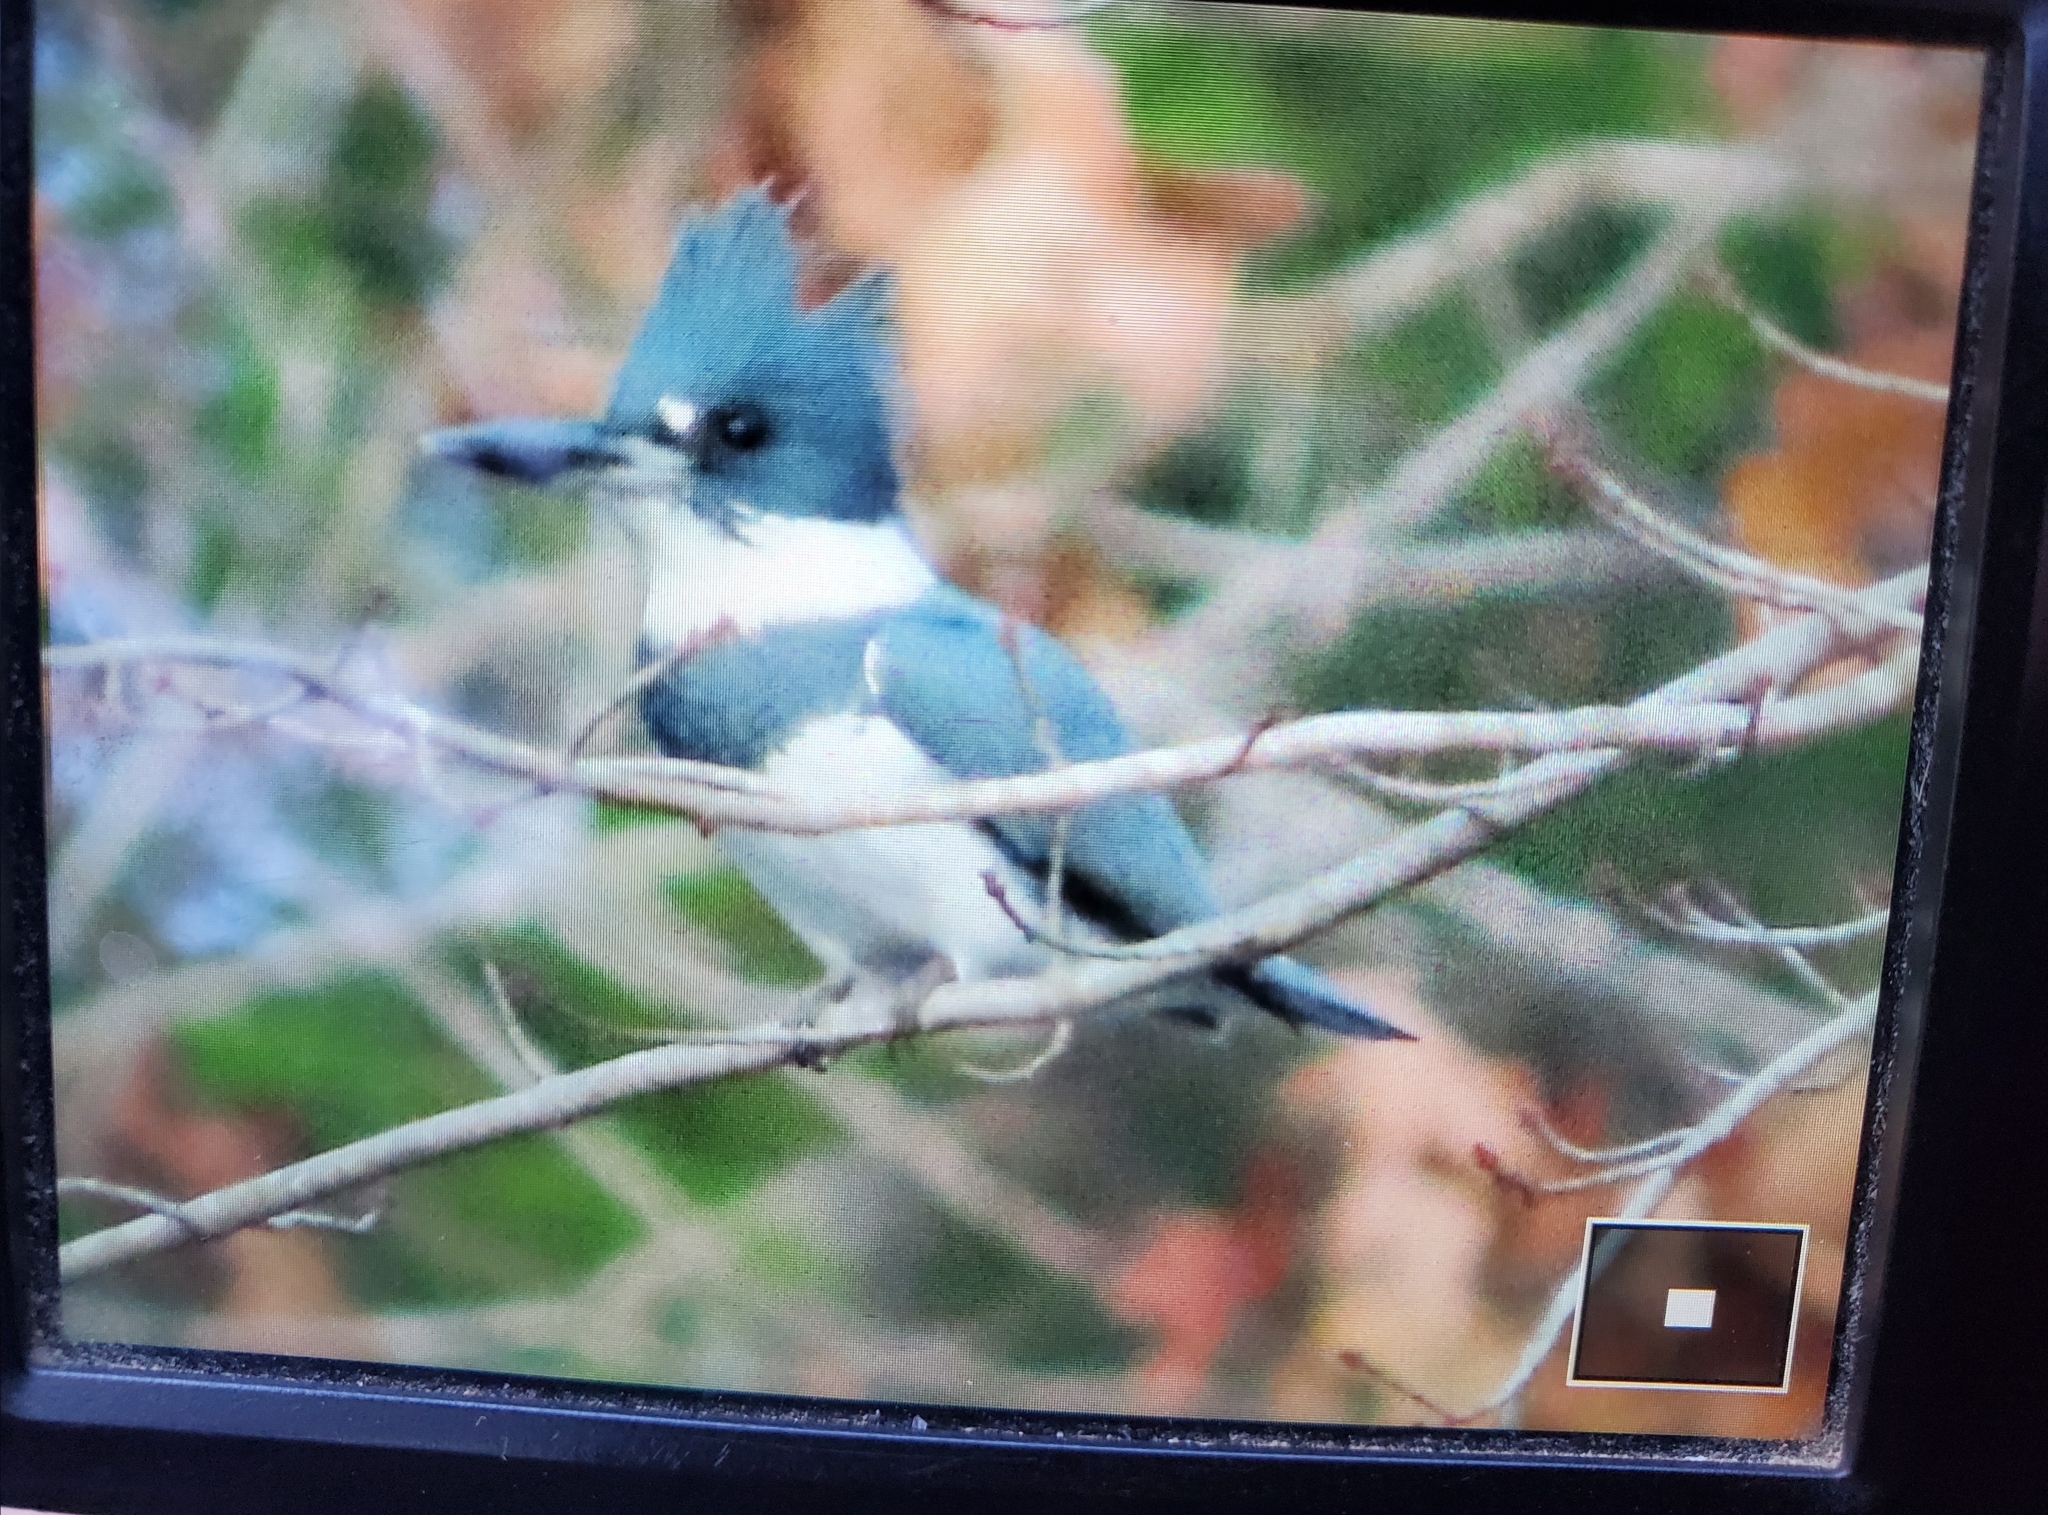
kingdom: Animalia
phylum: Chordata
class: Aves
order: Coraciiformes
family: Alcedinidae
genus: Megaceryle
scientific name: Megaceryle alcyon
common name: Belted kingfisher
